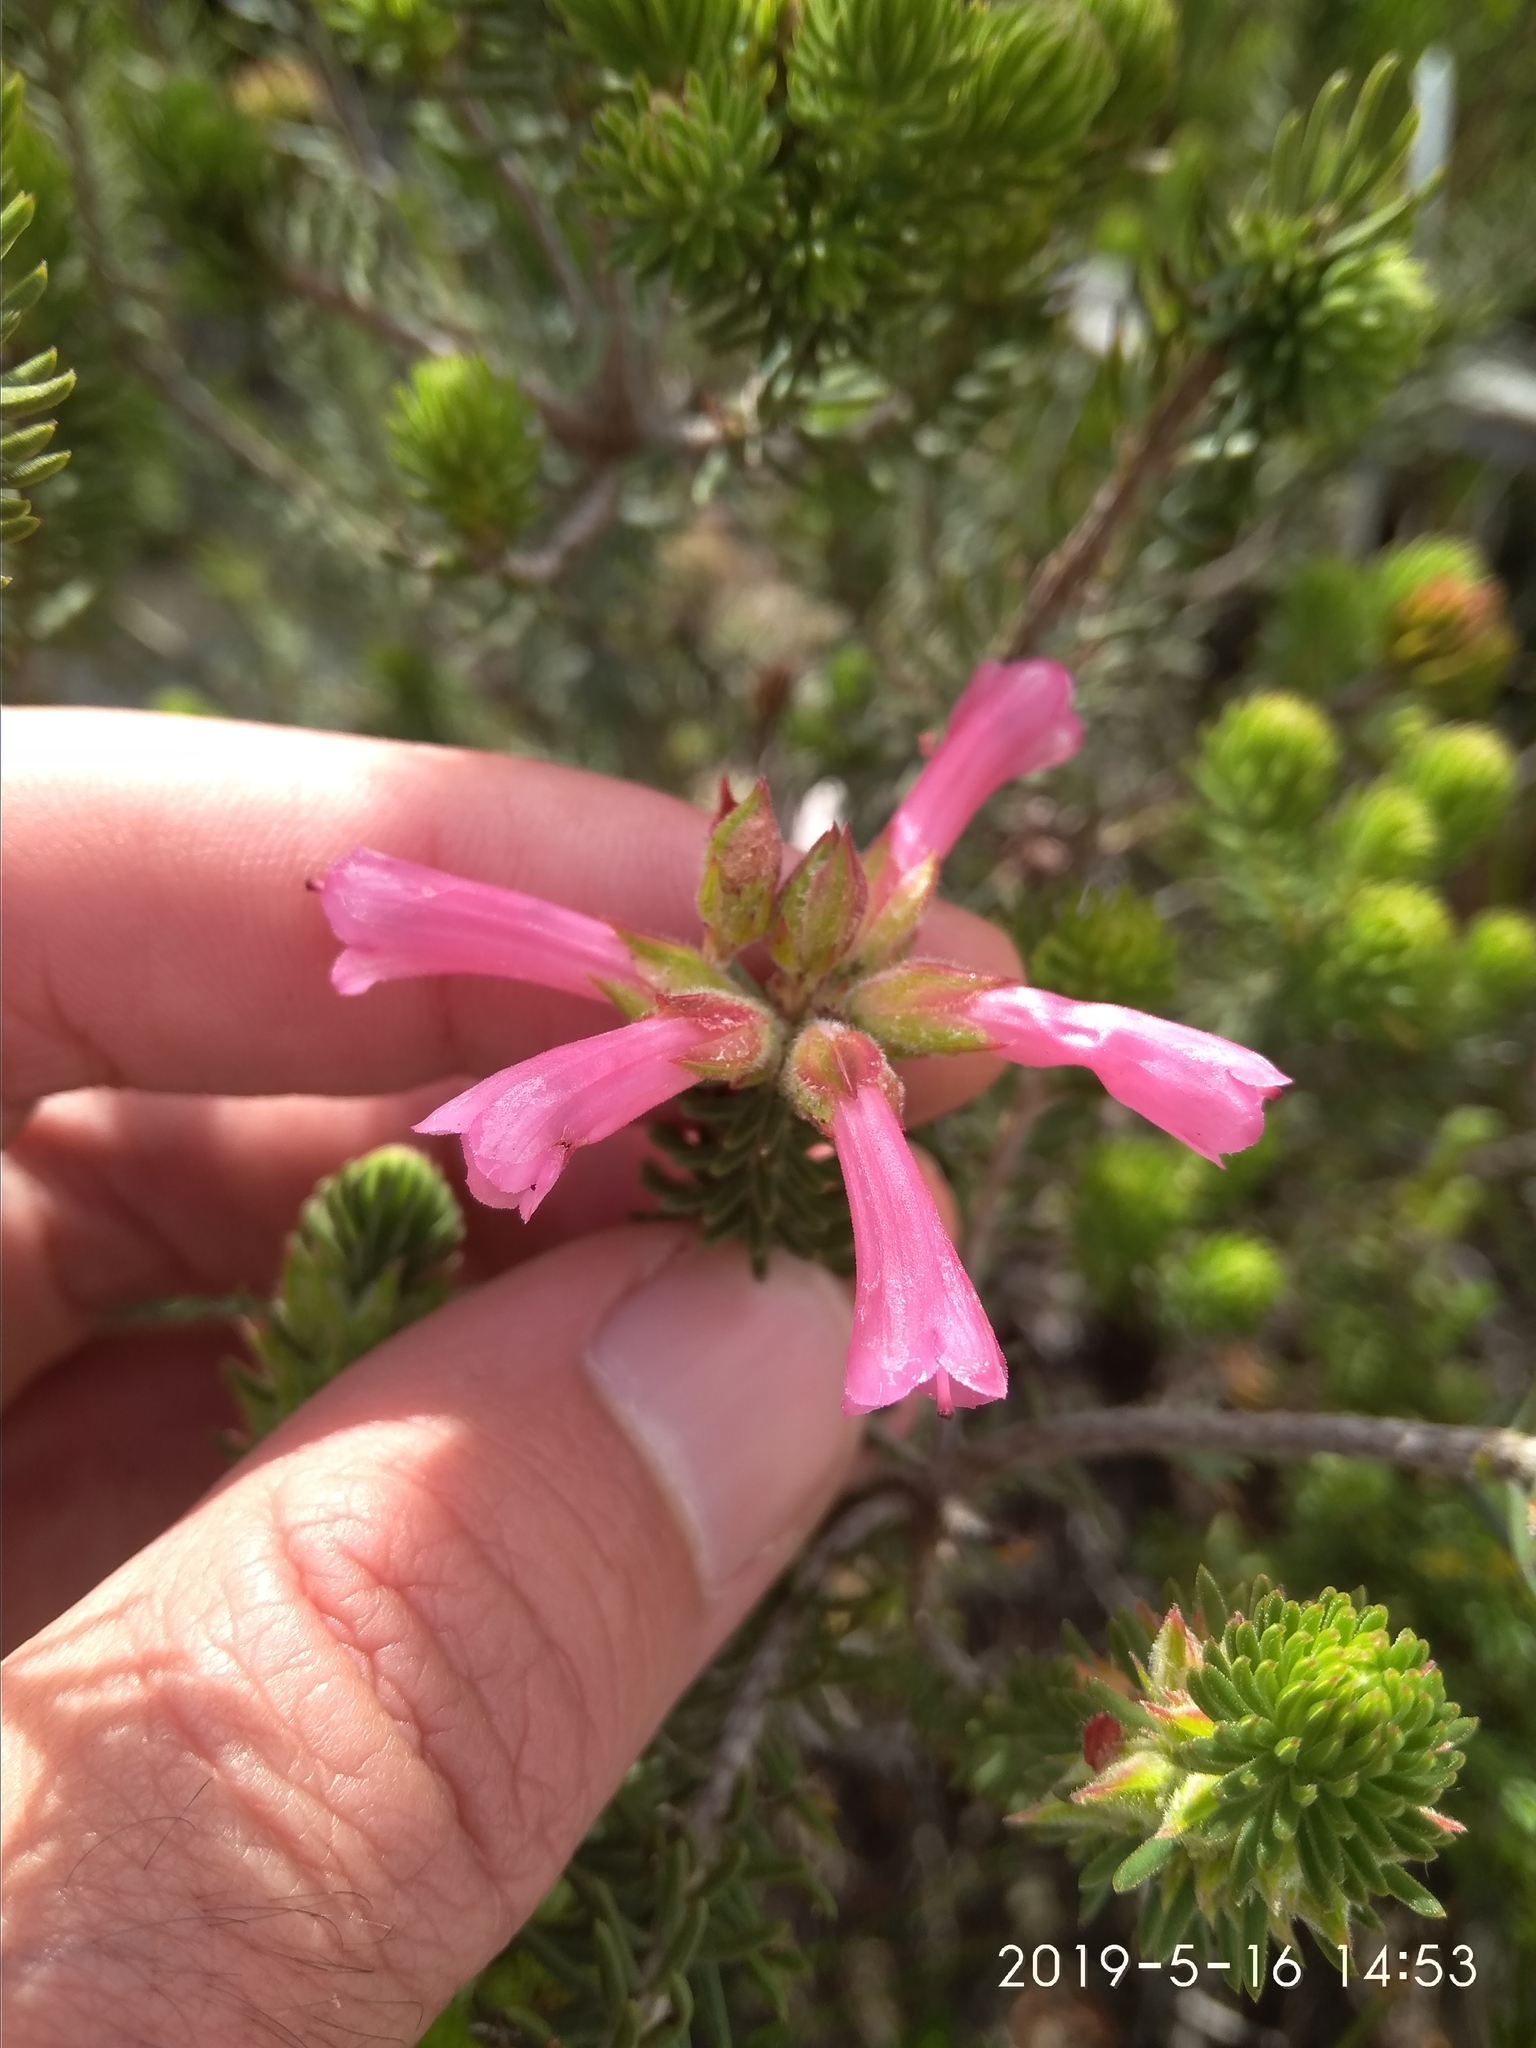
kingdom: Plantae
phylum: Tracheophyta
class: Magnoliopsida
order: Ericales
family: Ericaceae
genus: Erica
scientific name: Erica abietina
